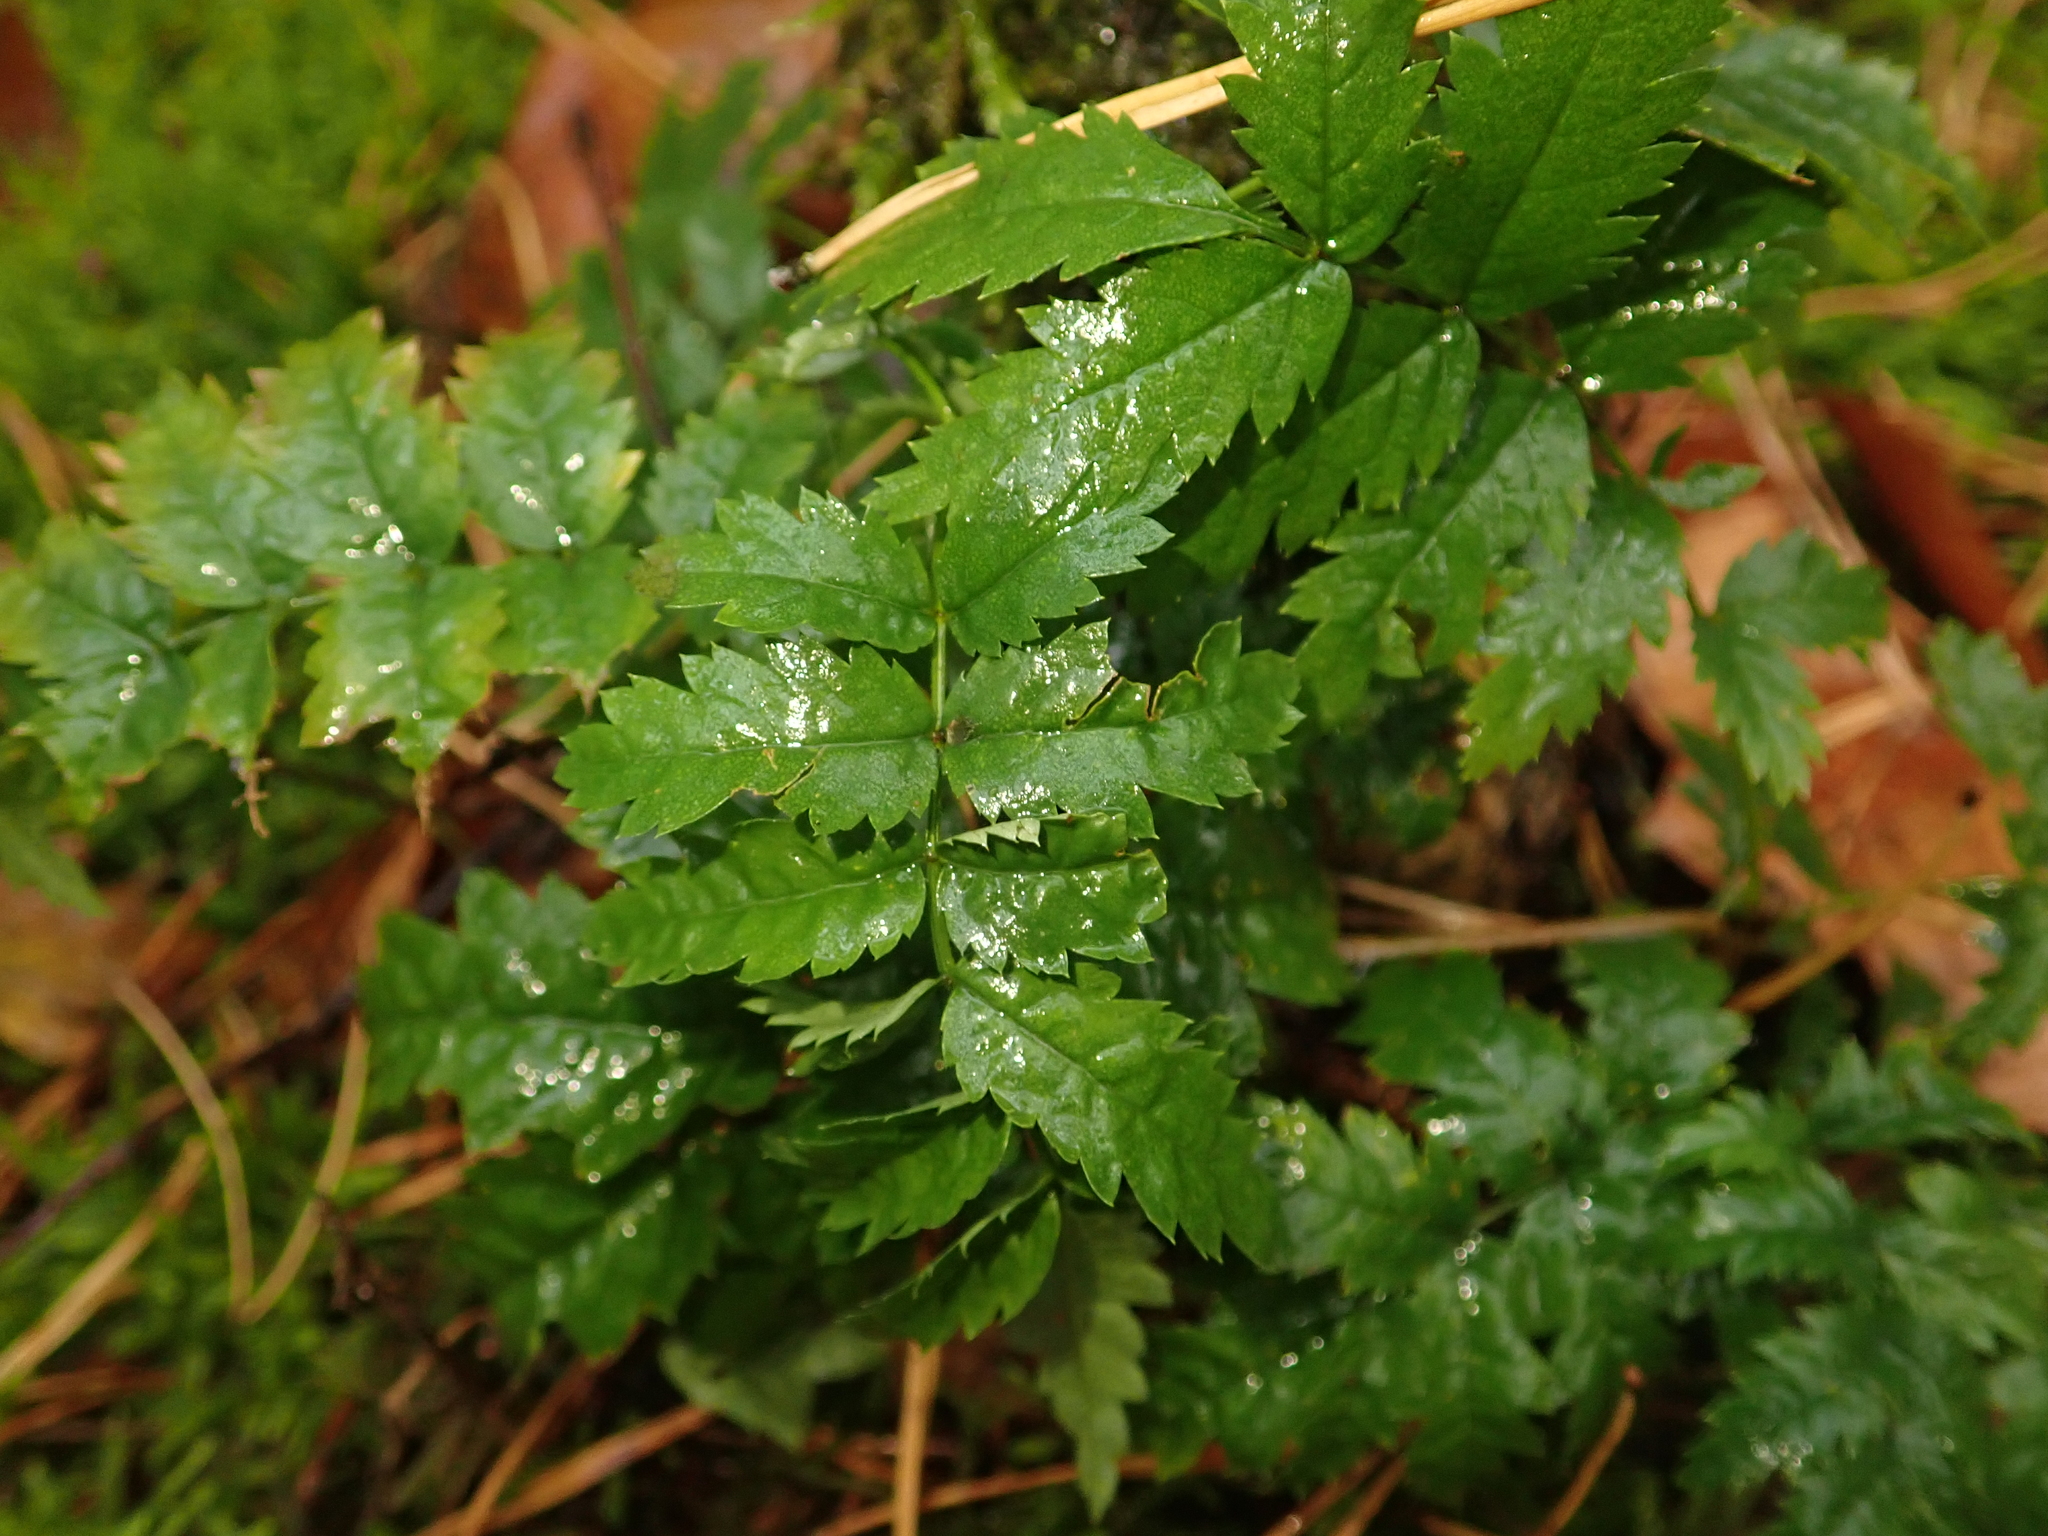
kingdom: Plantae
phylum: Tracheophyta
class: Magnoliopsida
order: Rosales
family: Rosaceae
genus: Sorbus
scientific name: Sorbus aucuparia
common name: Rowan
